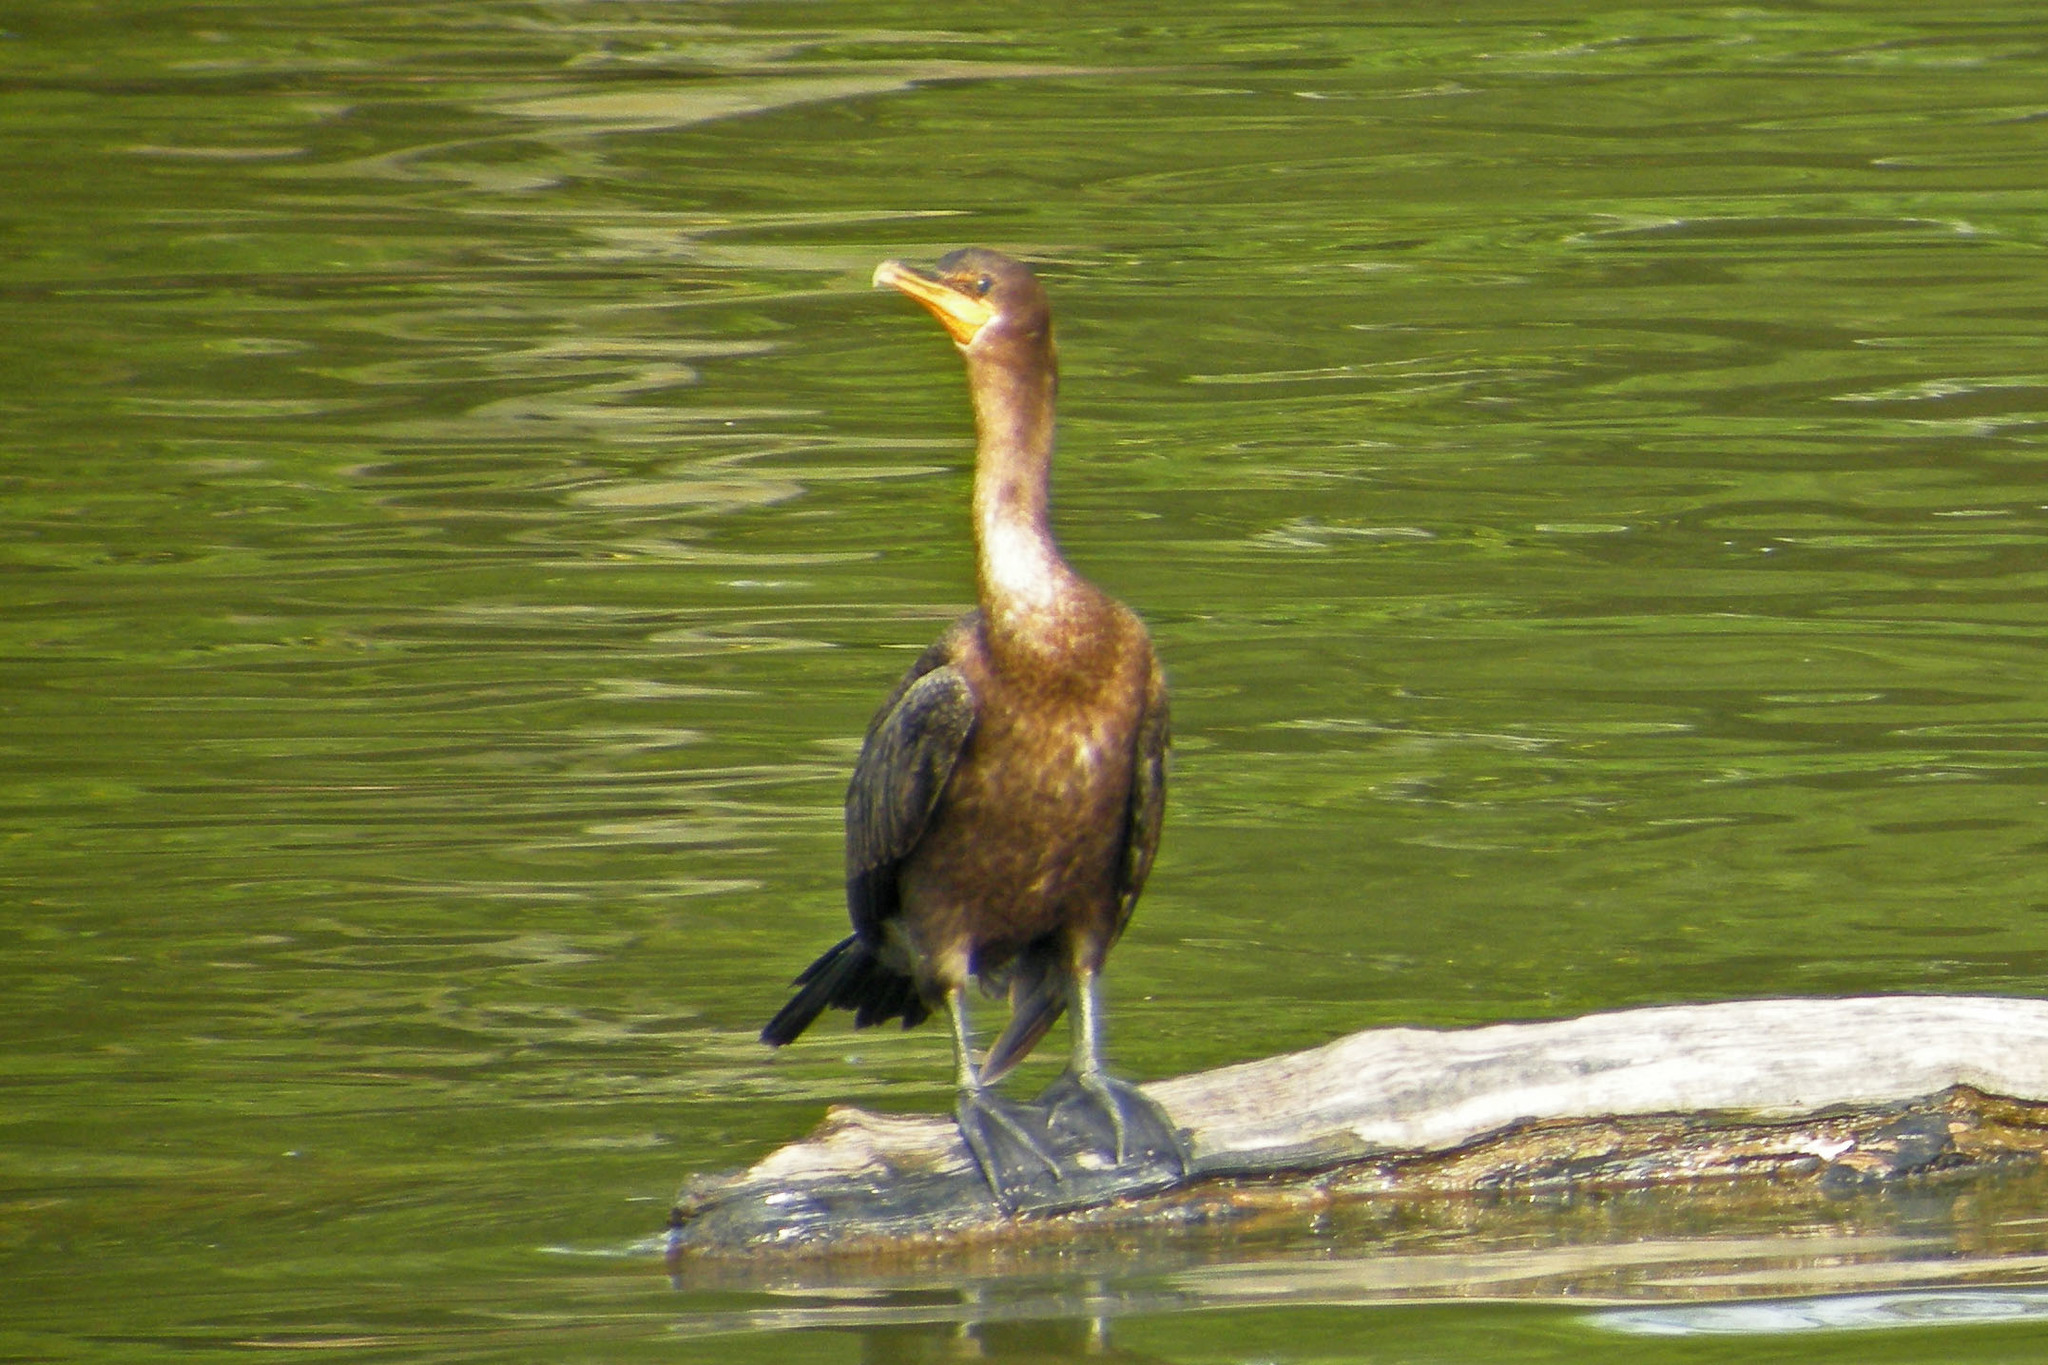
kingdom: Animalia
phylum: Chordata
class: Aves
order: Suliformes
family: Phalacrocoracidae
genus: Phalacrocorax
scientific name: Phalacrocorax auritus
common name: Double-crested cormorant
